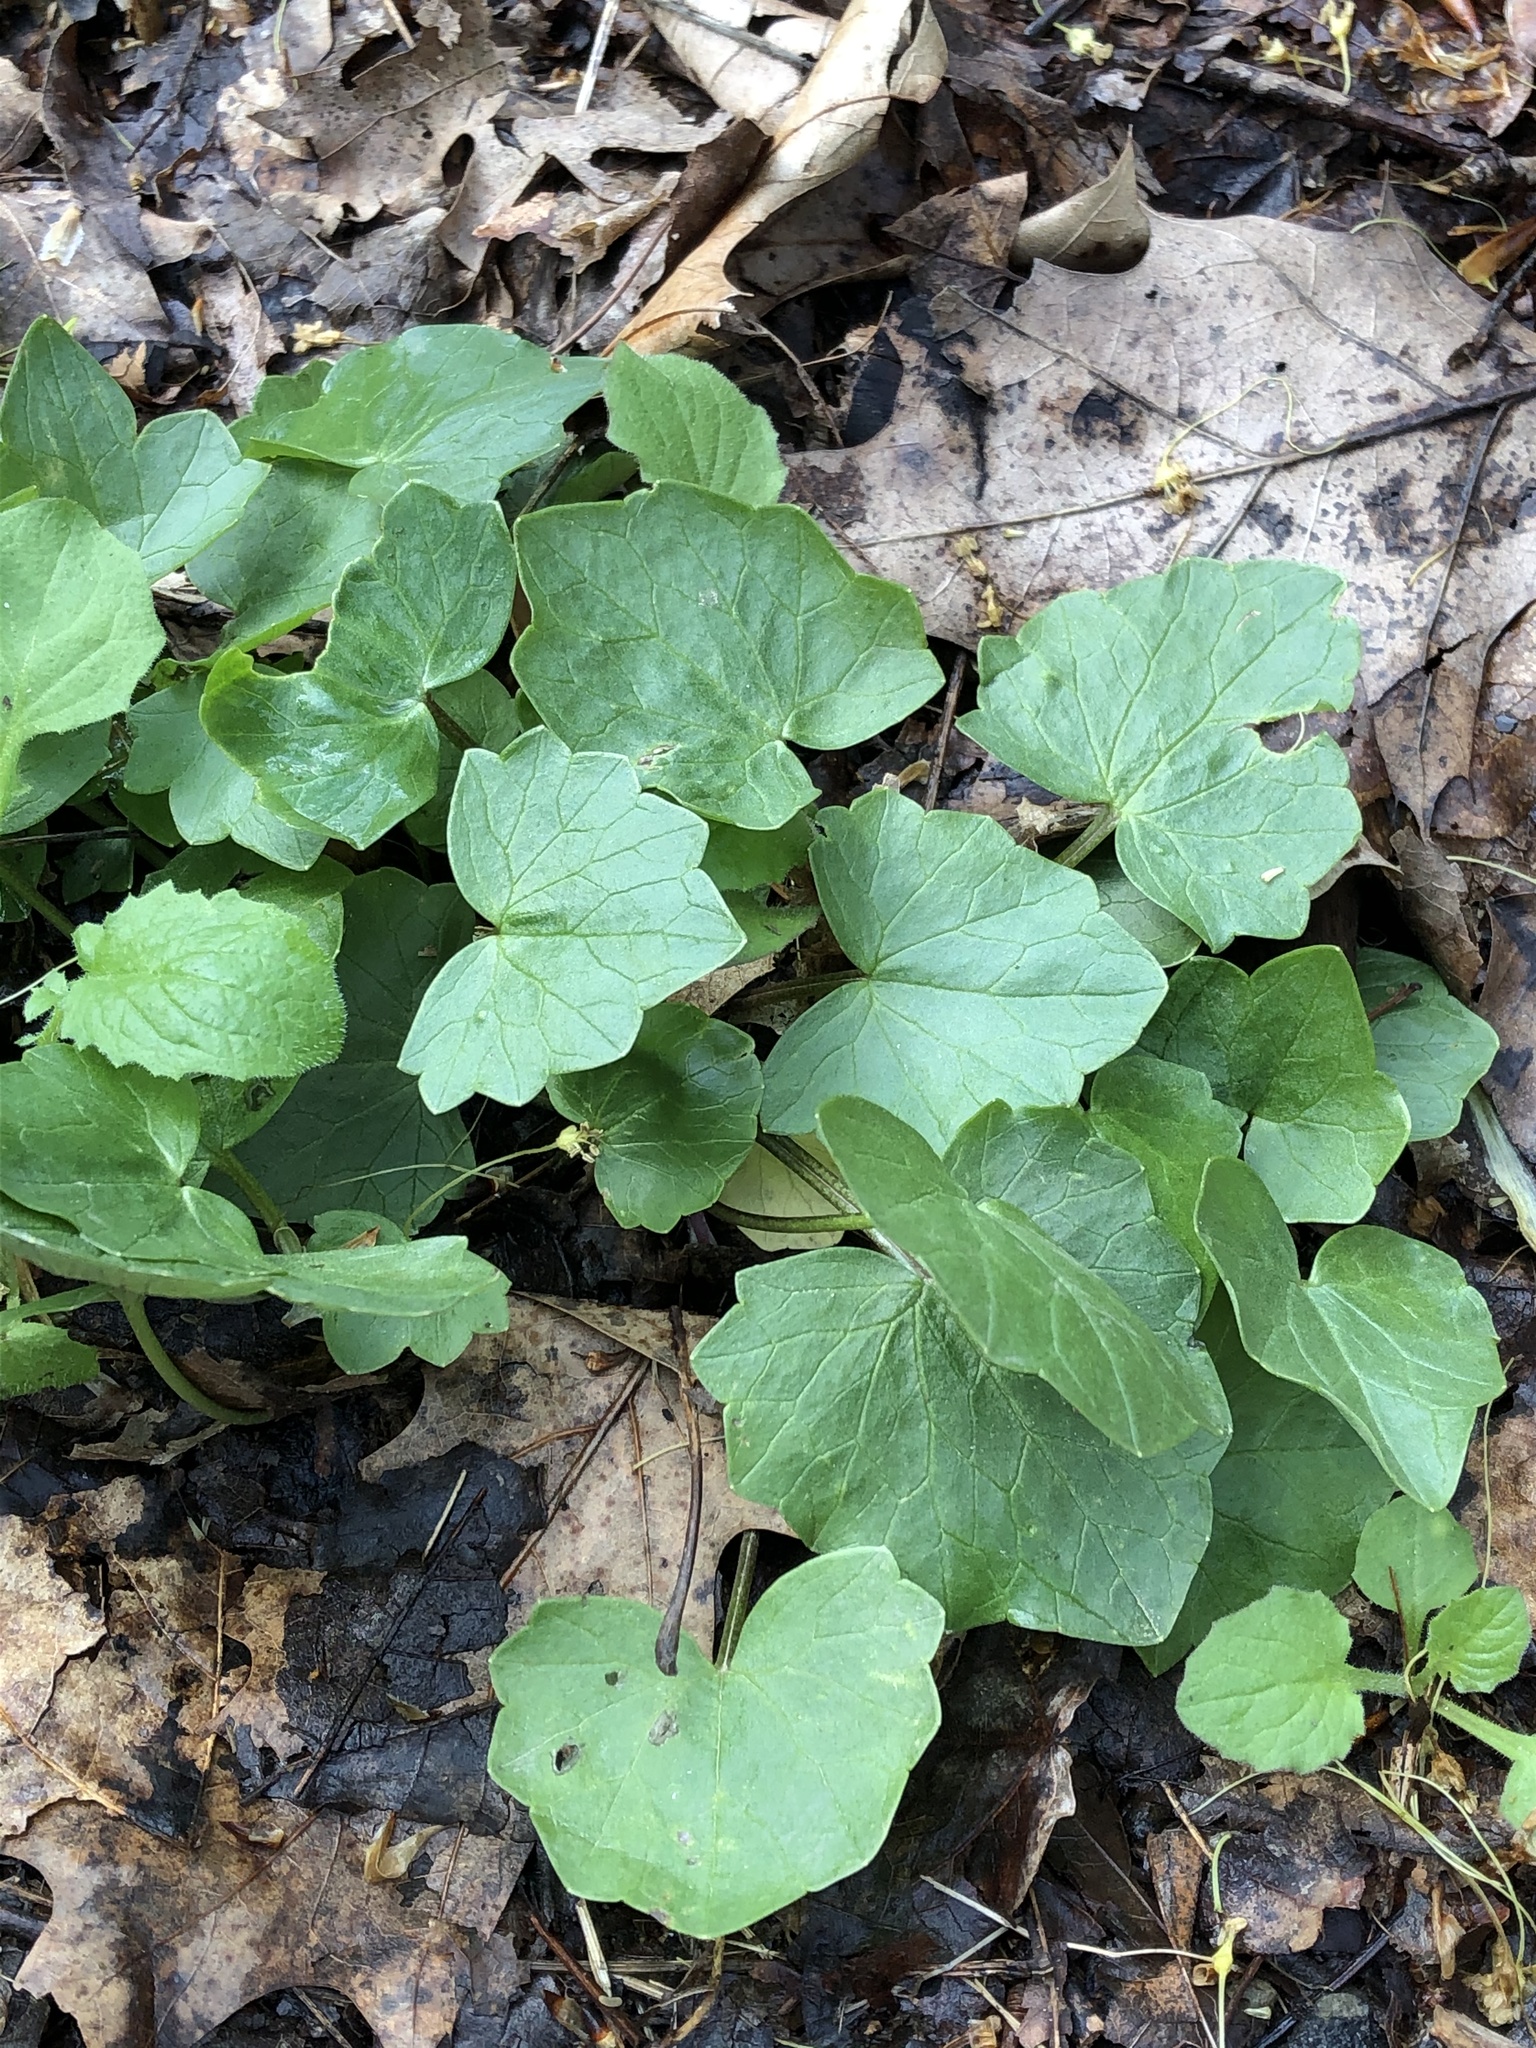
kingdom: Plantae
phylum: Tracheophyta
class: Magnoliopsida
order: Ranunculales
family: Ranunculaceae
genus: Ficaria
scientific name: Ficaria verna
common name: Lesser celandine
